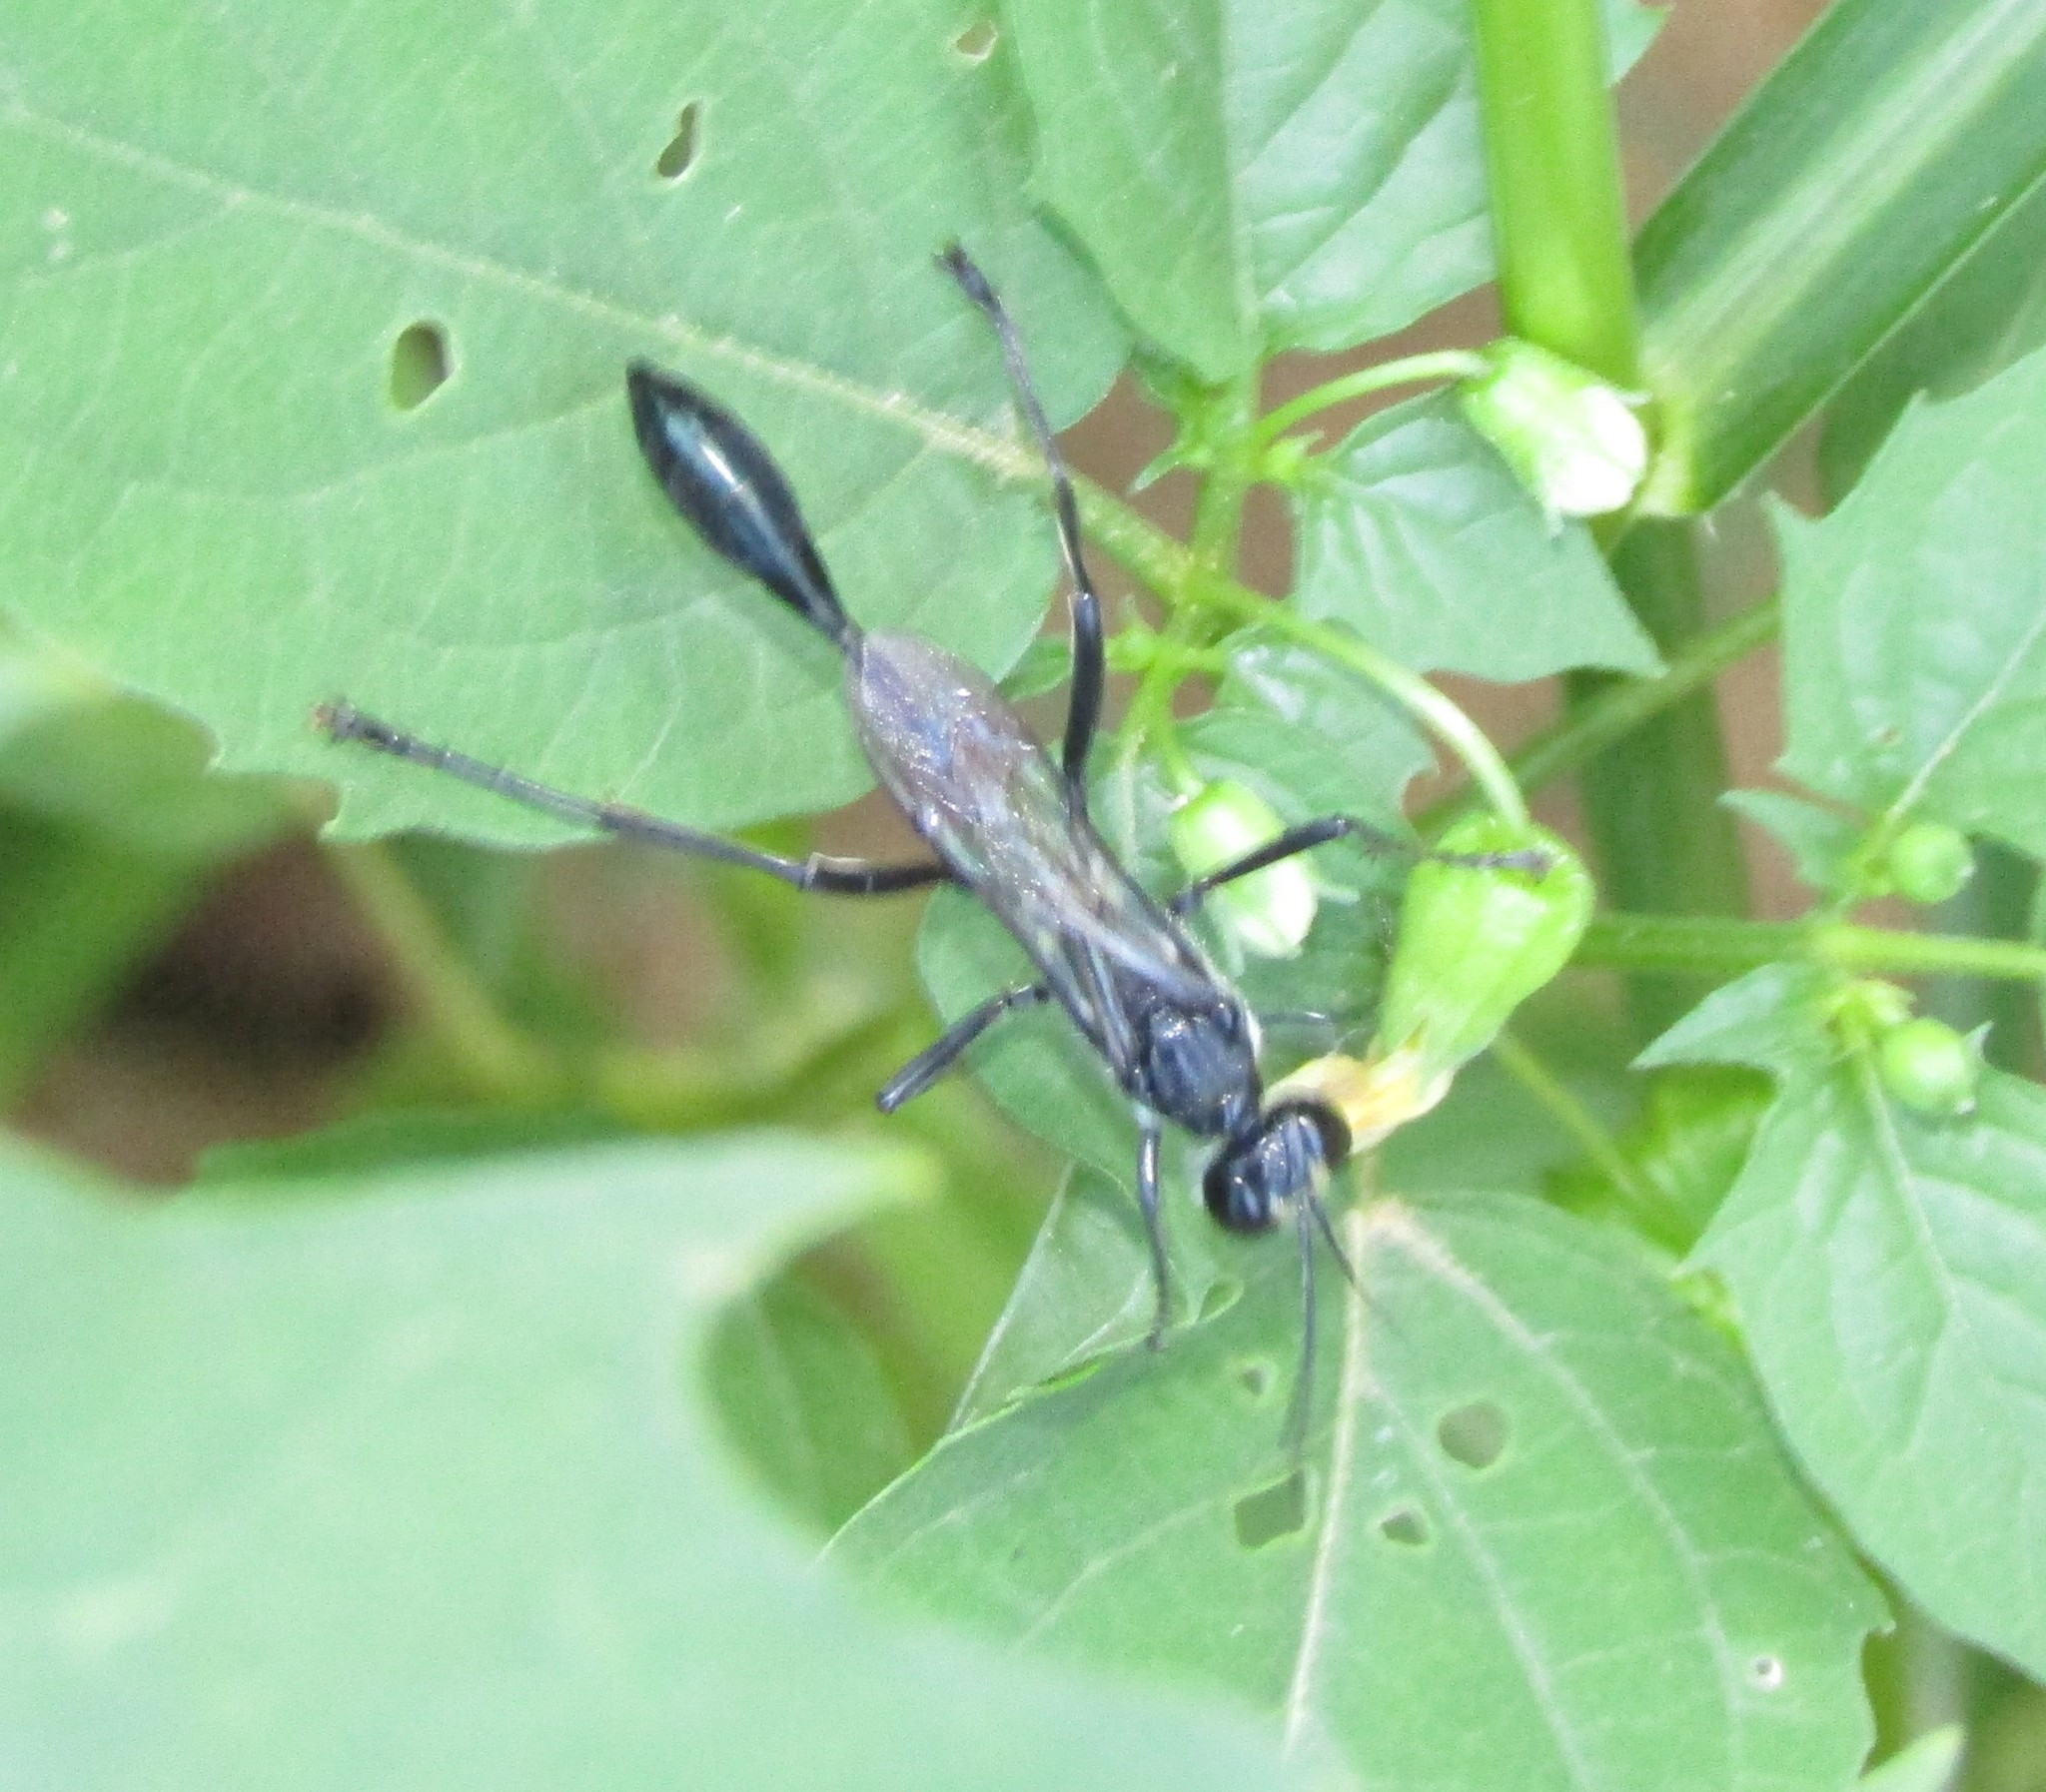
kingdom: Animalia
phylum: Arthropoda
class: Insecta
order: Hymenoptera
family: Sphecidae
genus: Eremnophila
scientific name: Eremnophila aureonotata
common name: Gold-marked thread-waisted wasp
